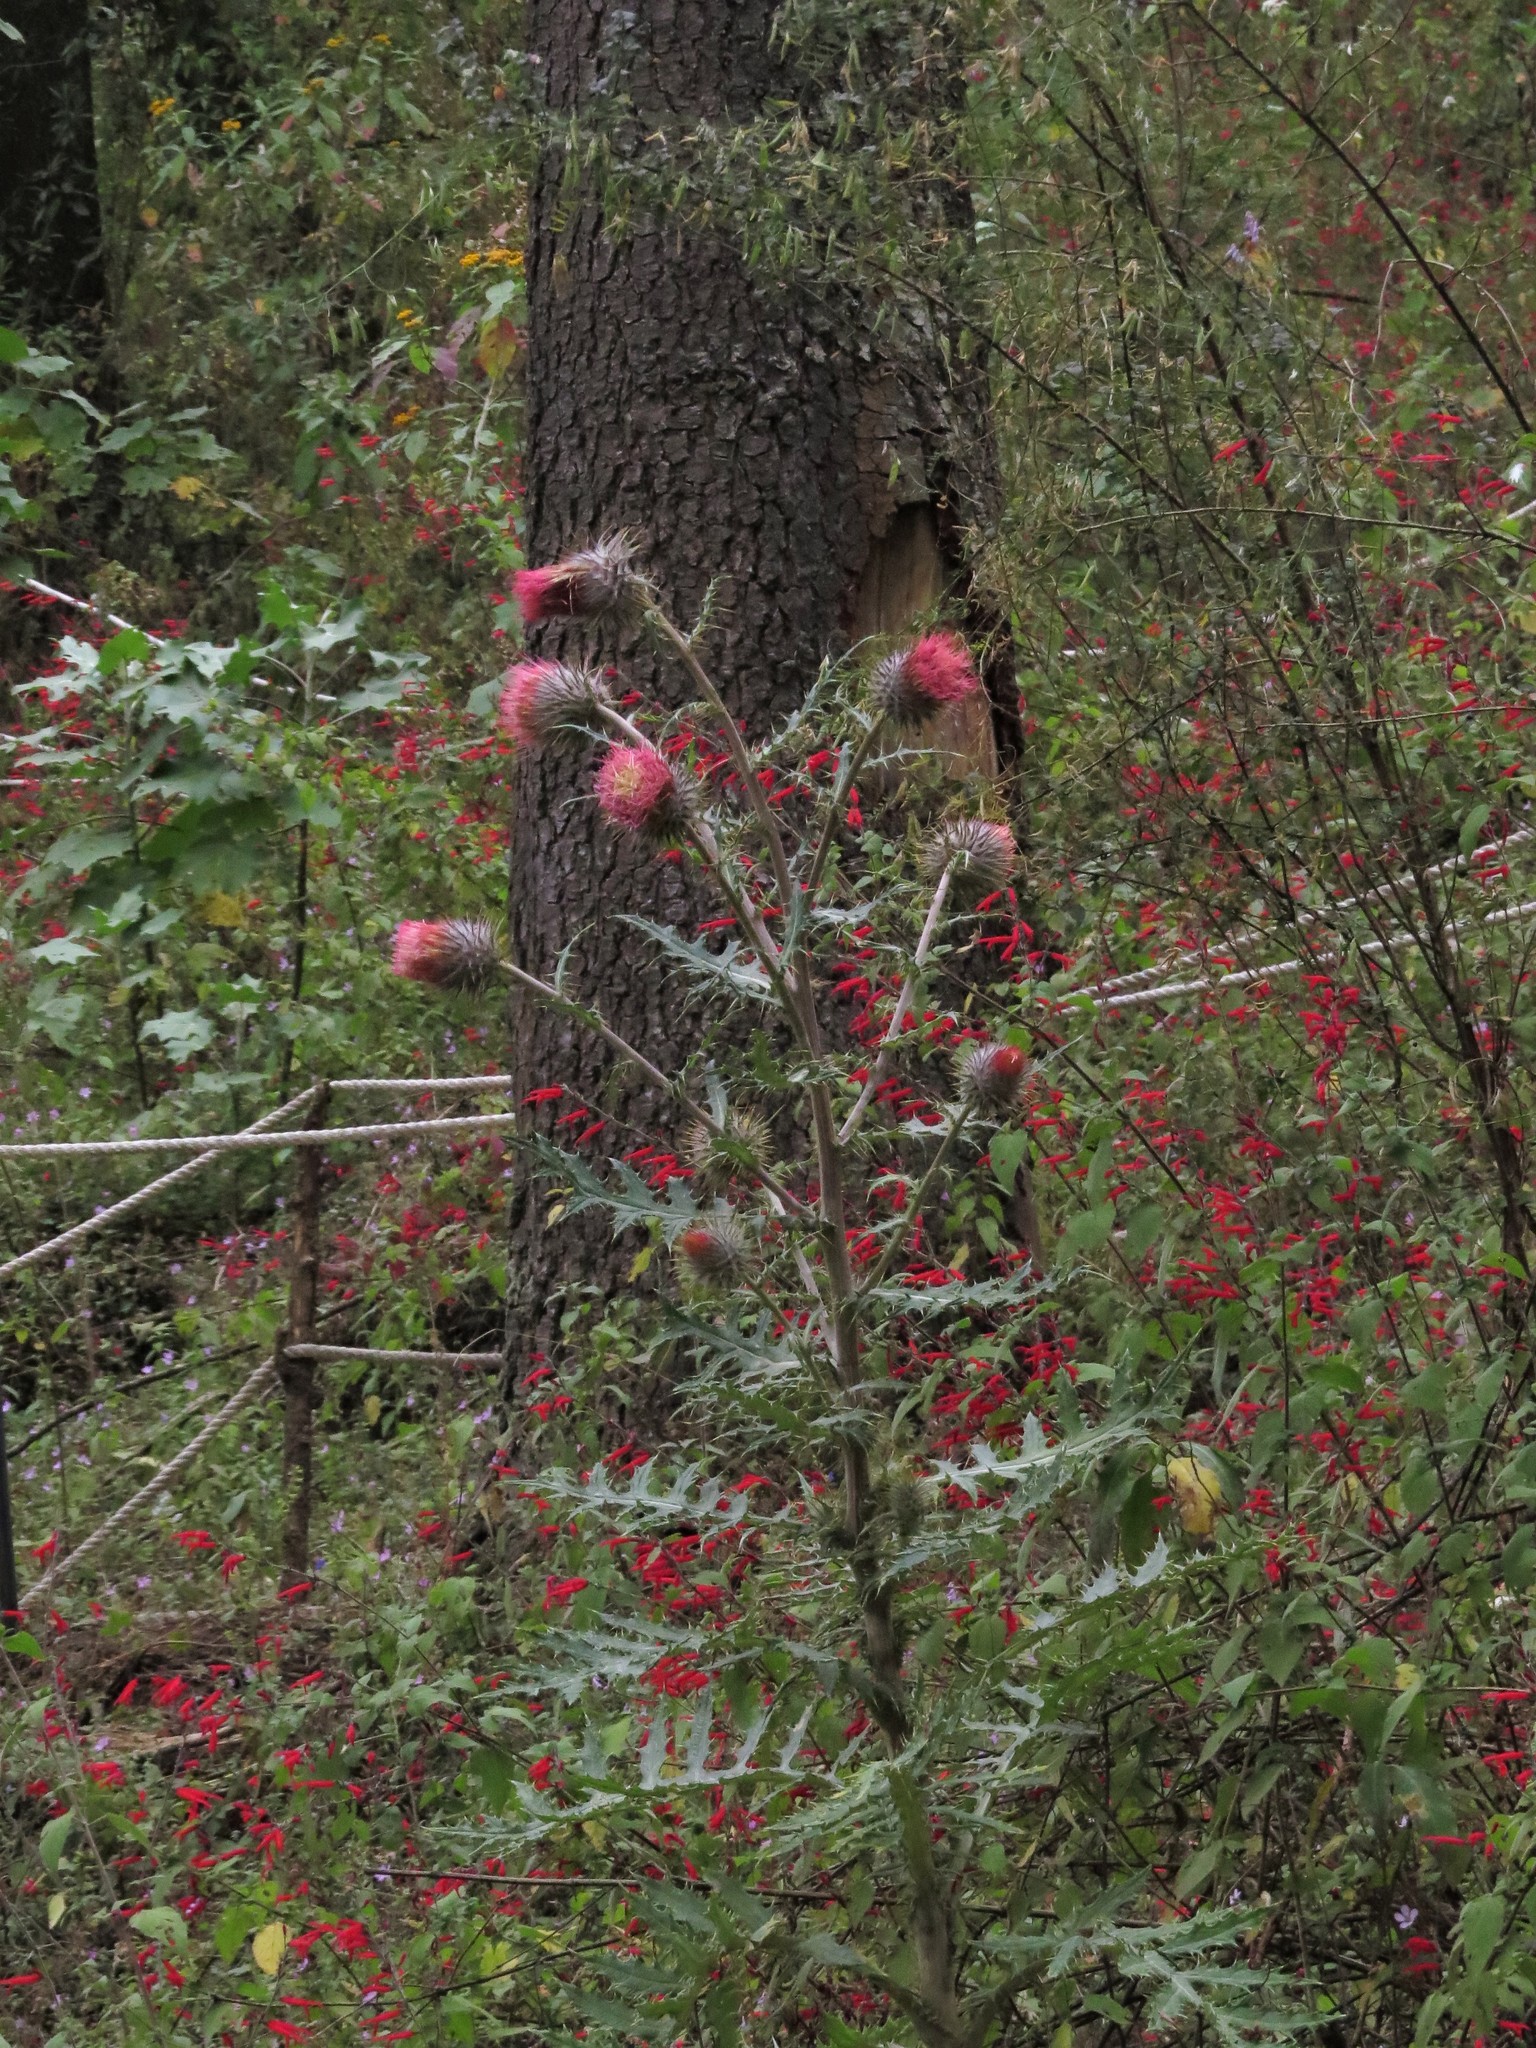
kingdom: Plantae
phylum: Tracheophyta
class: Magnoliopsida
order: Asterales
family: Asteraceae
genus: Cirsium
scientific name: Cirsium ehrenbergii
